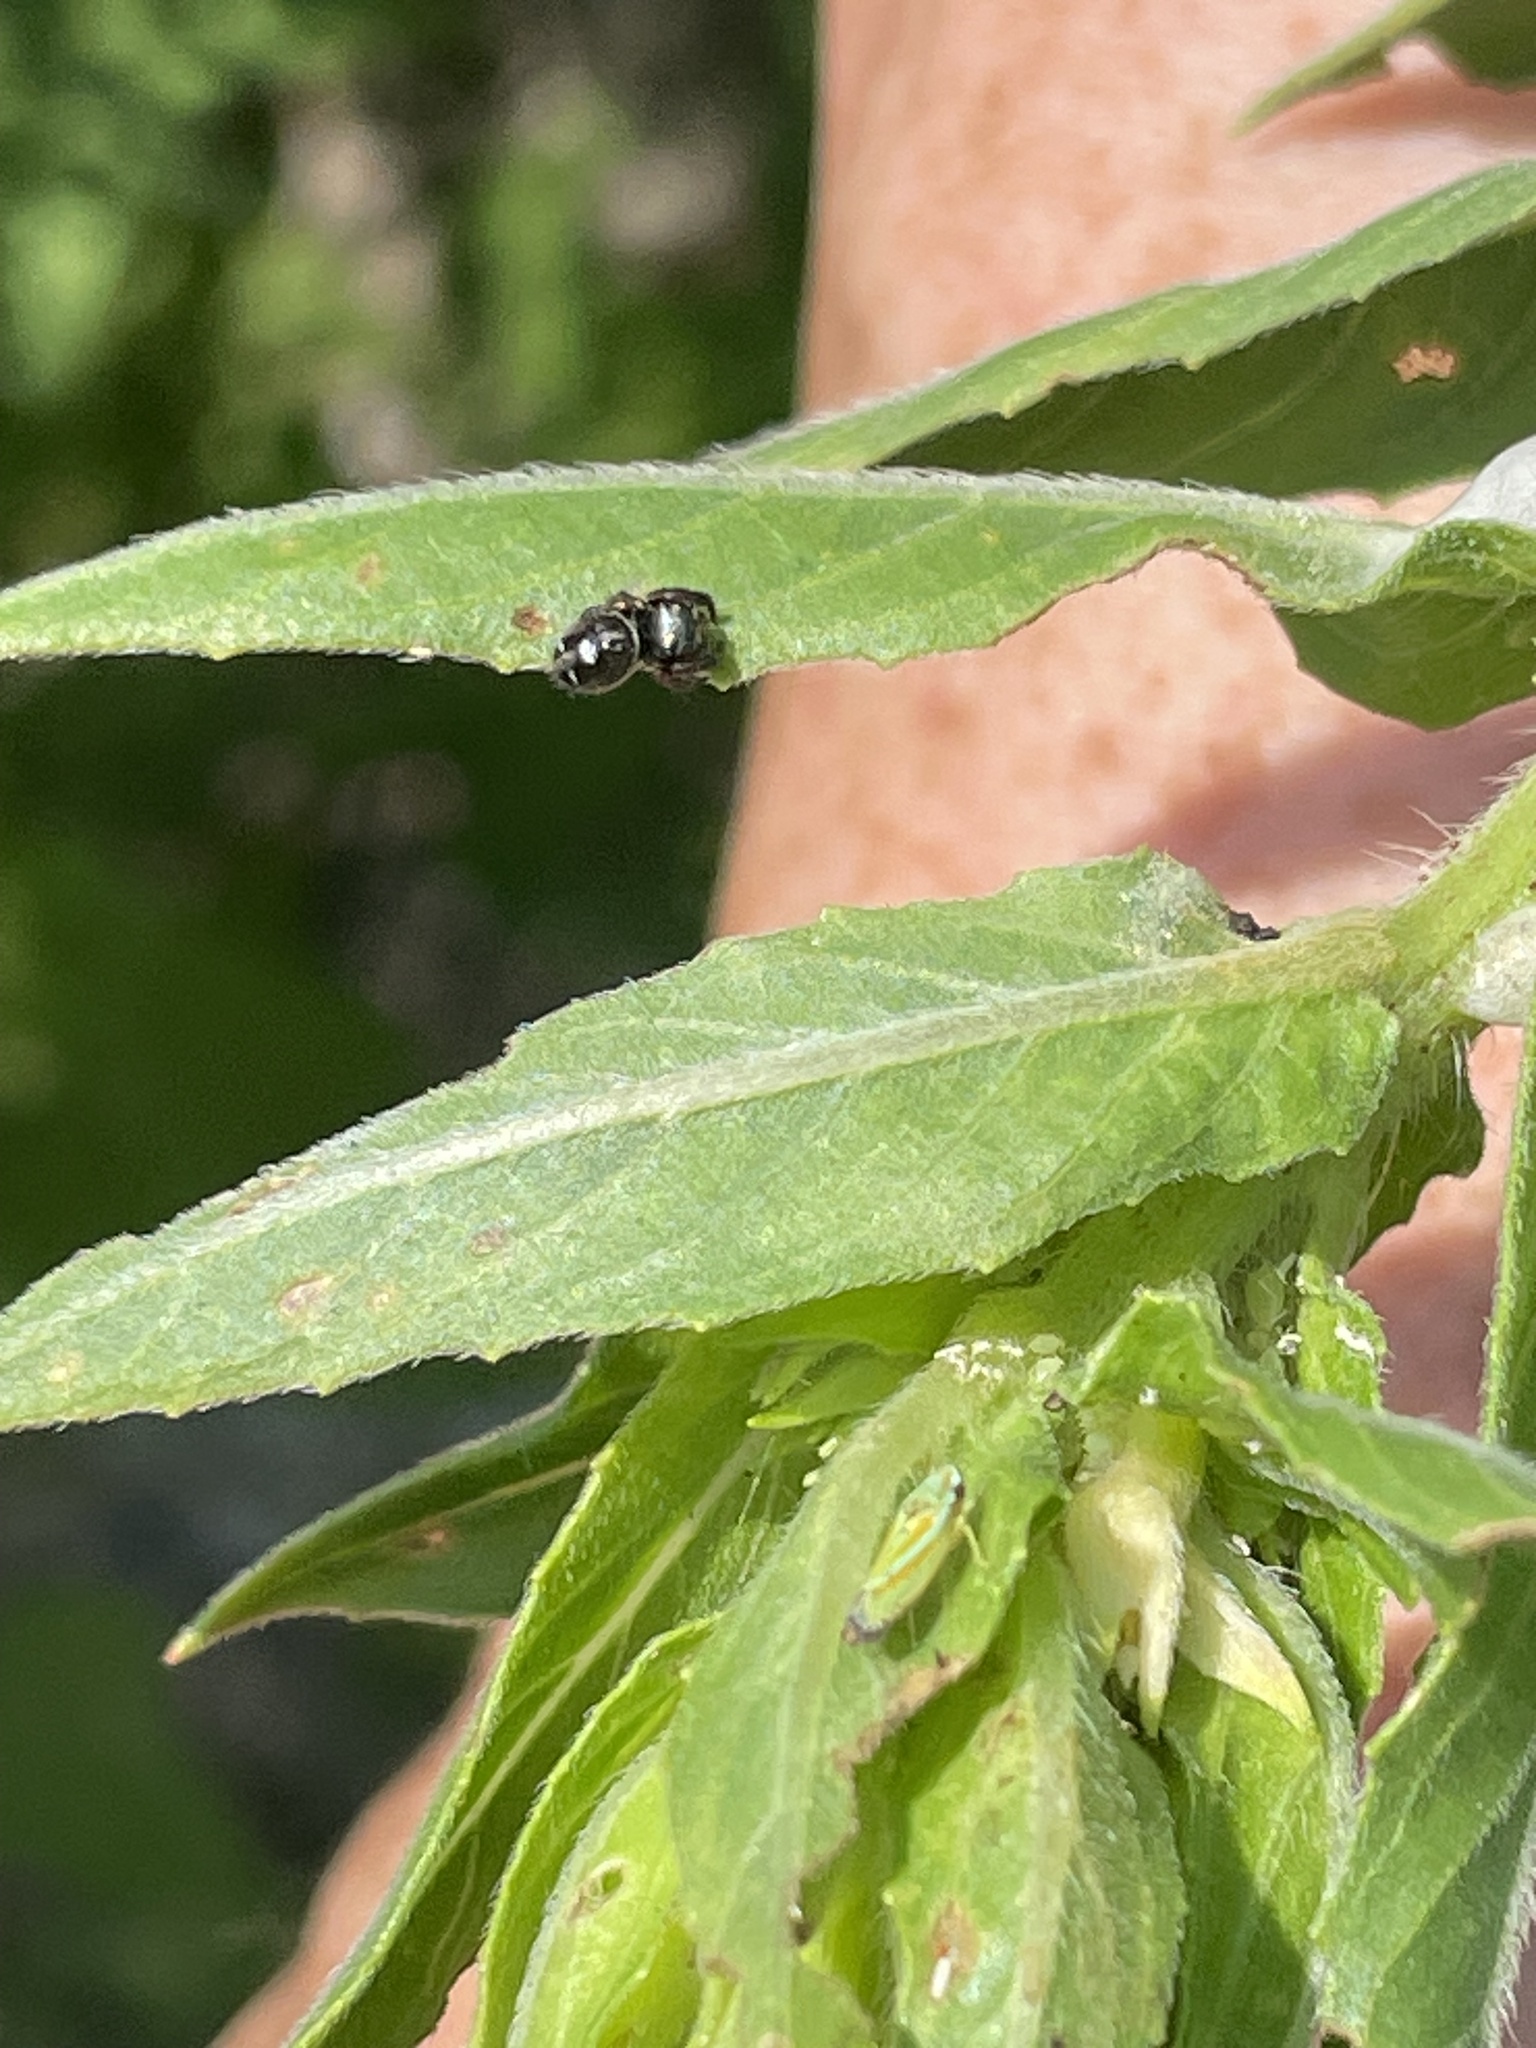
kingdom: Animalia
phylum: Arthropoda
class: Arachnida
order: Araneae
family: Salticidae
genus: Phidippus
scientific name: Phidippus audax
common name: Bold jumper
